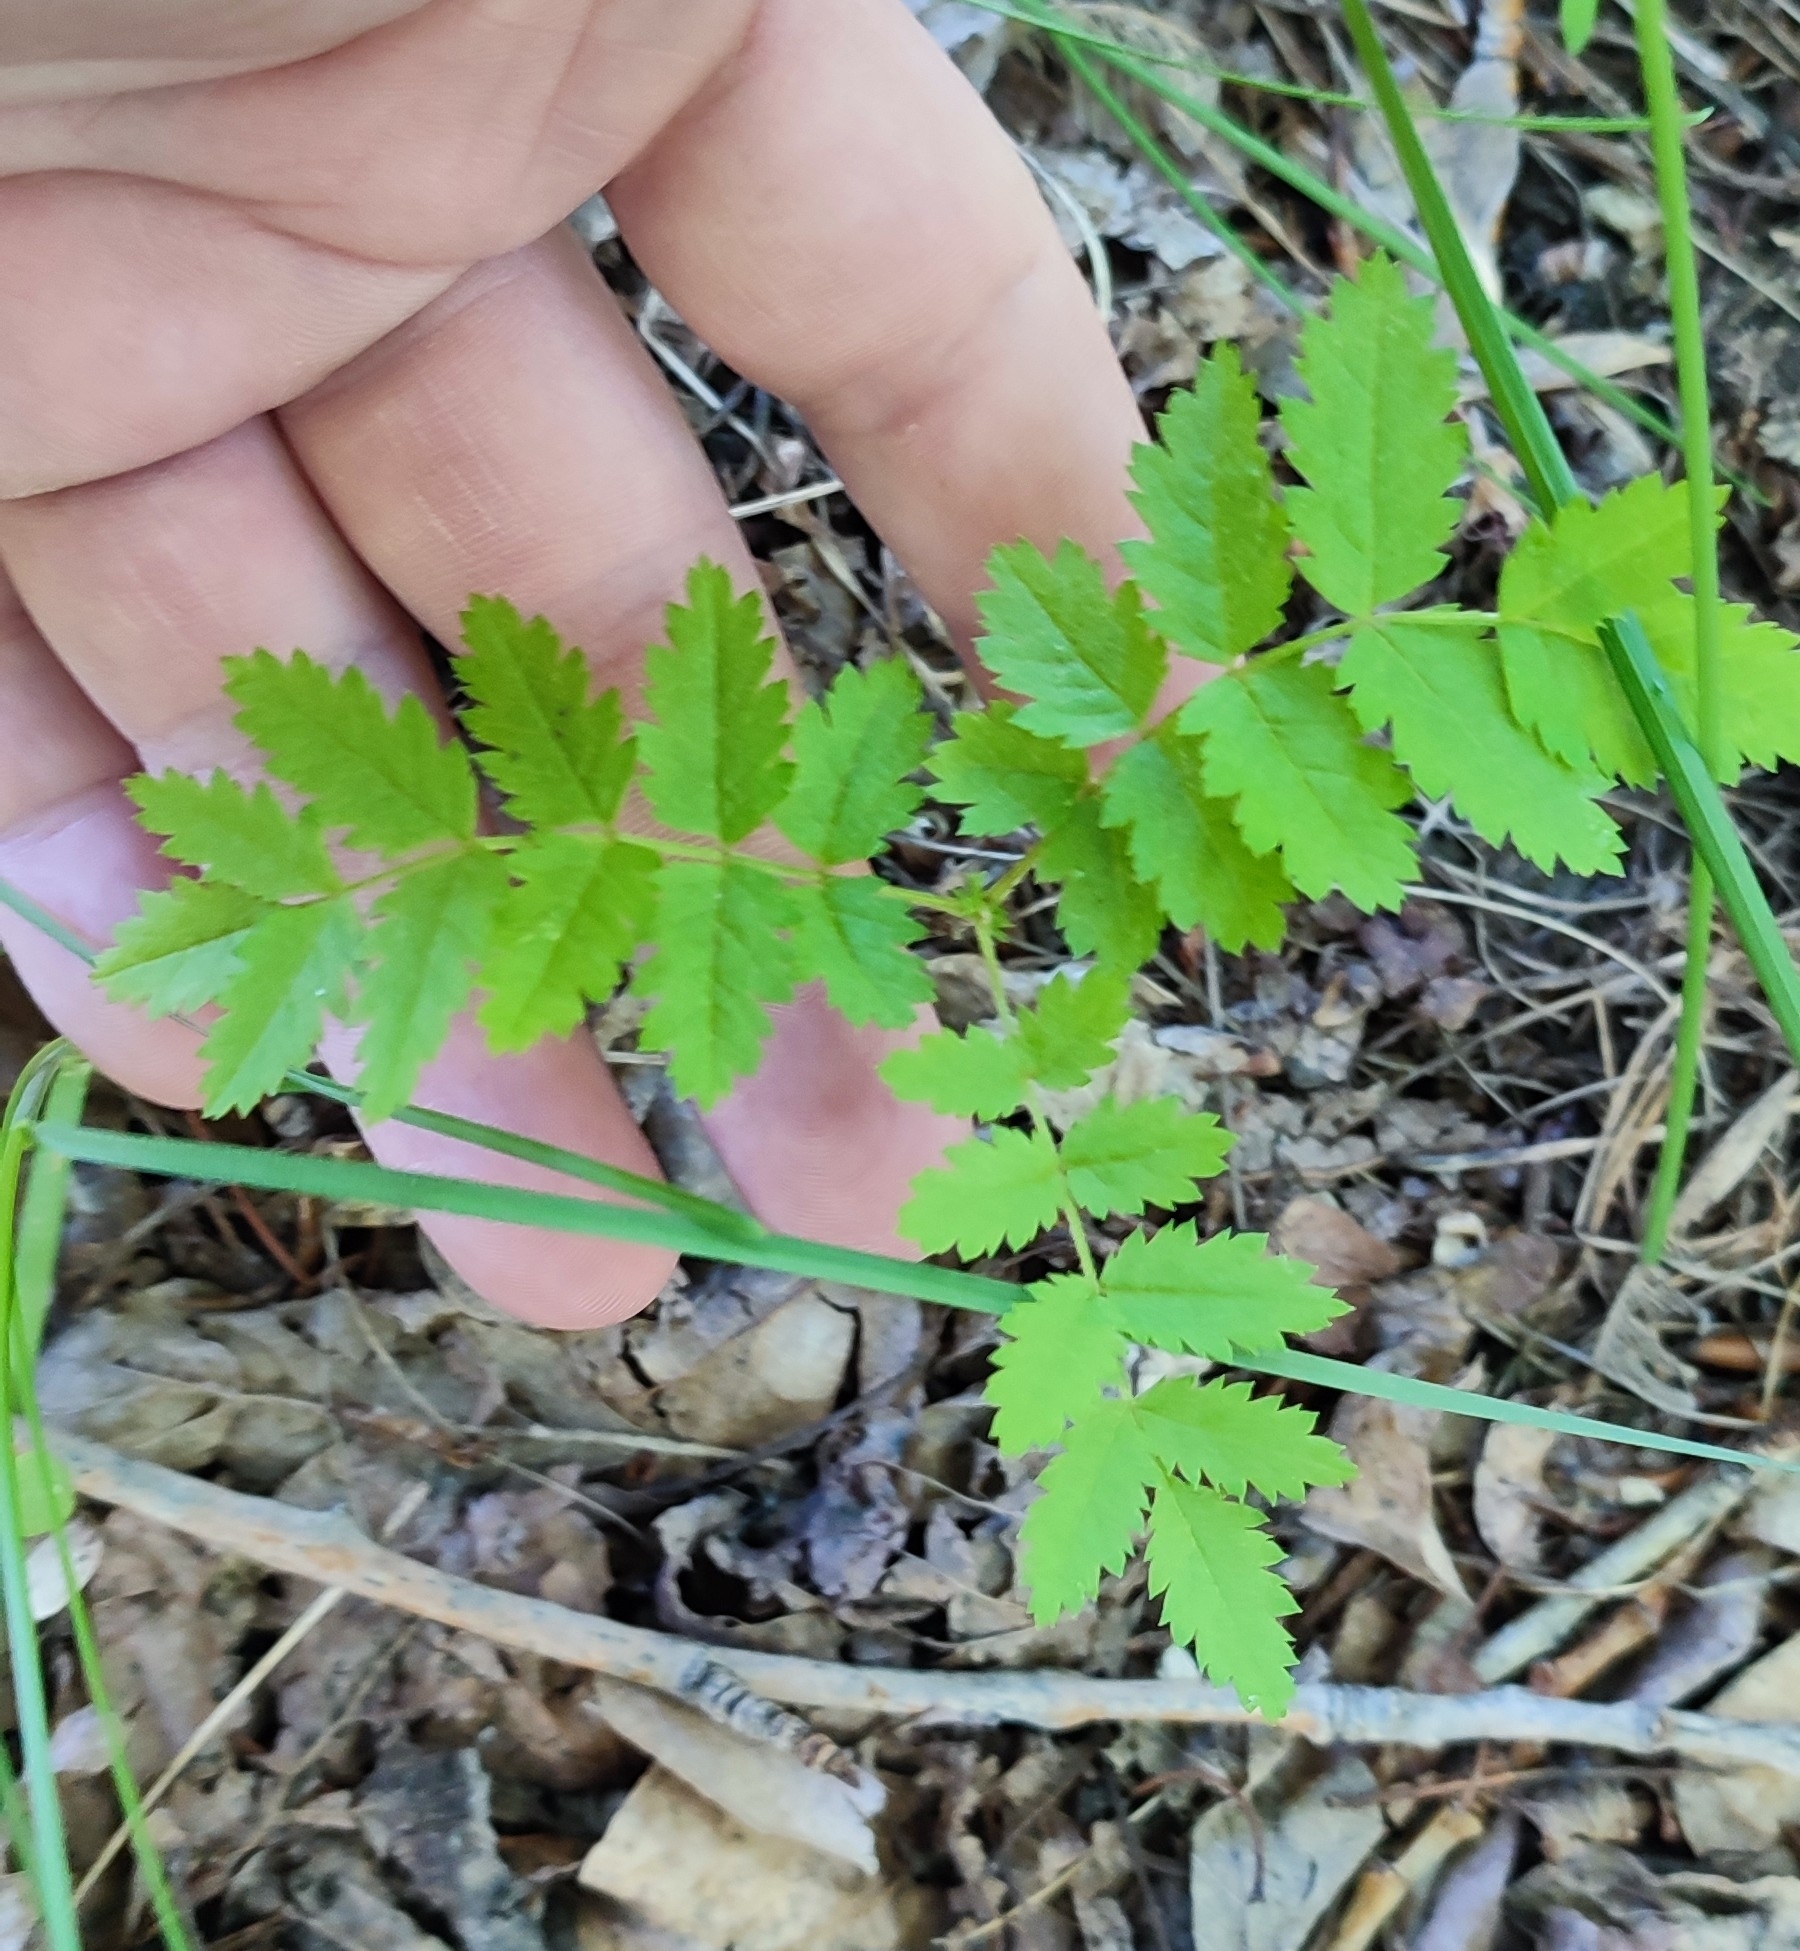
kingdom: Plantae
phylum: Tracheophyta
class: Magnoliopsida
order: Rosales
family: Rosaceae
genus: Sorbus
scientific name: Sorbus aucuparia
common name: Rowan
